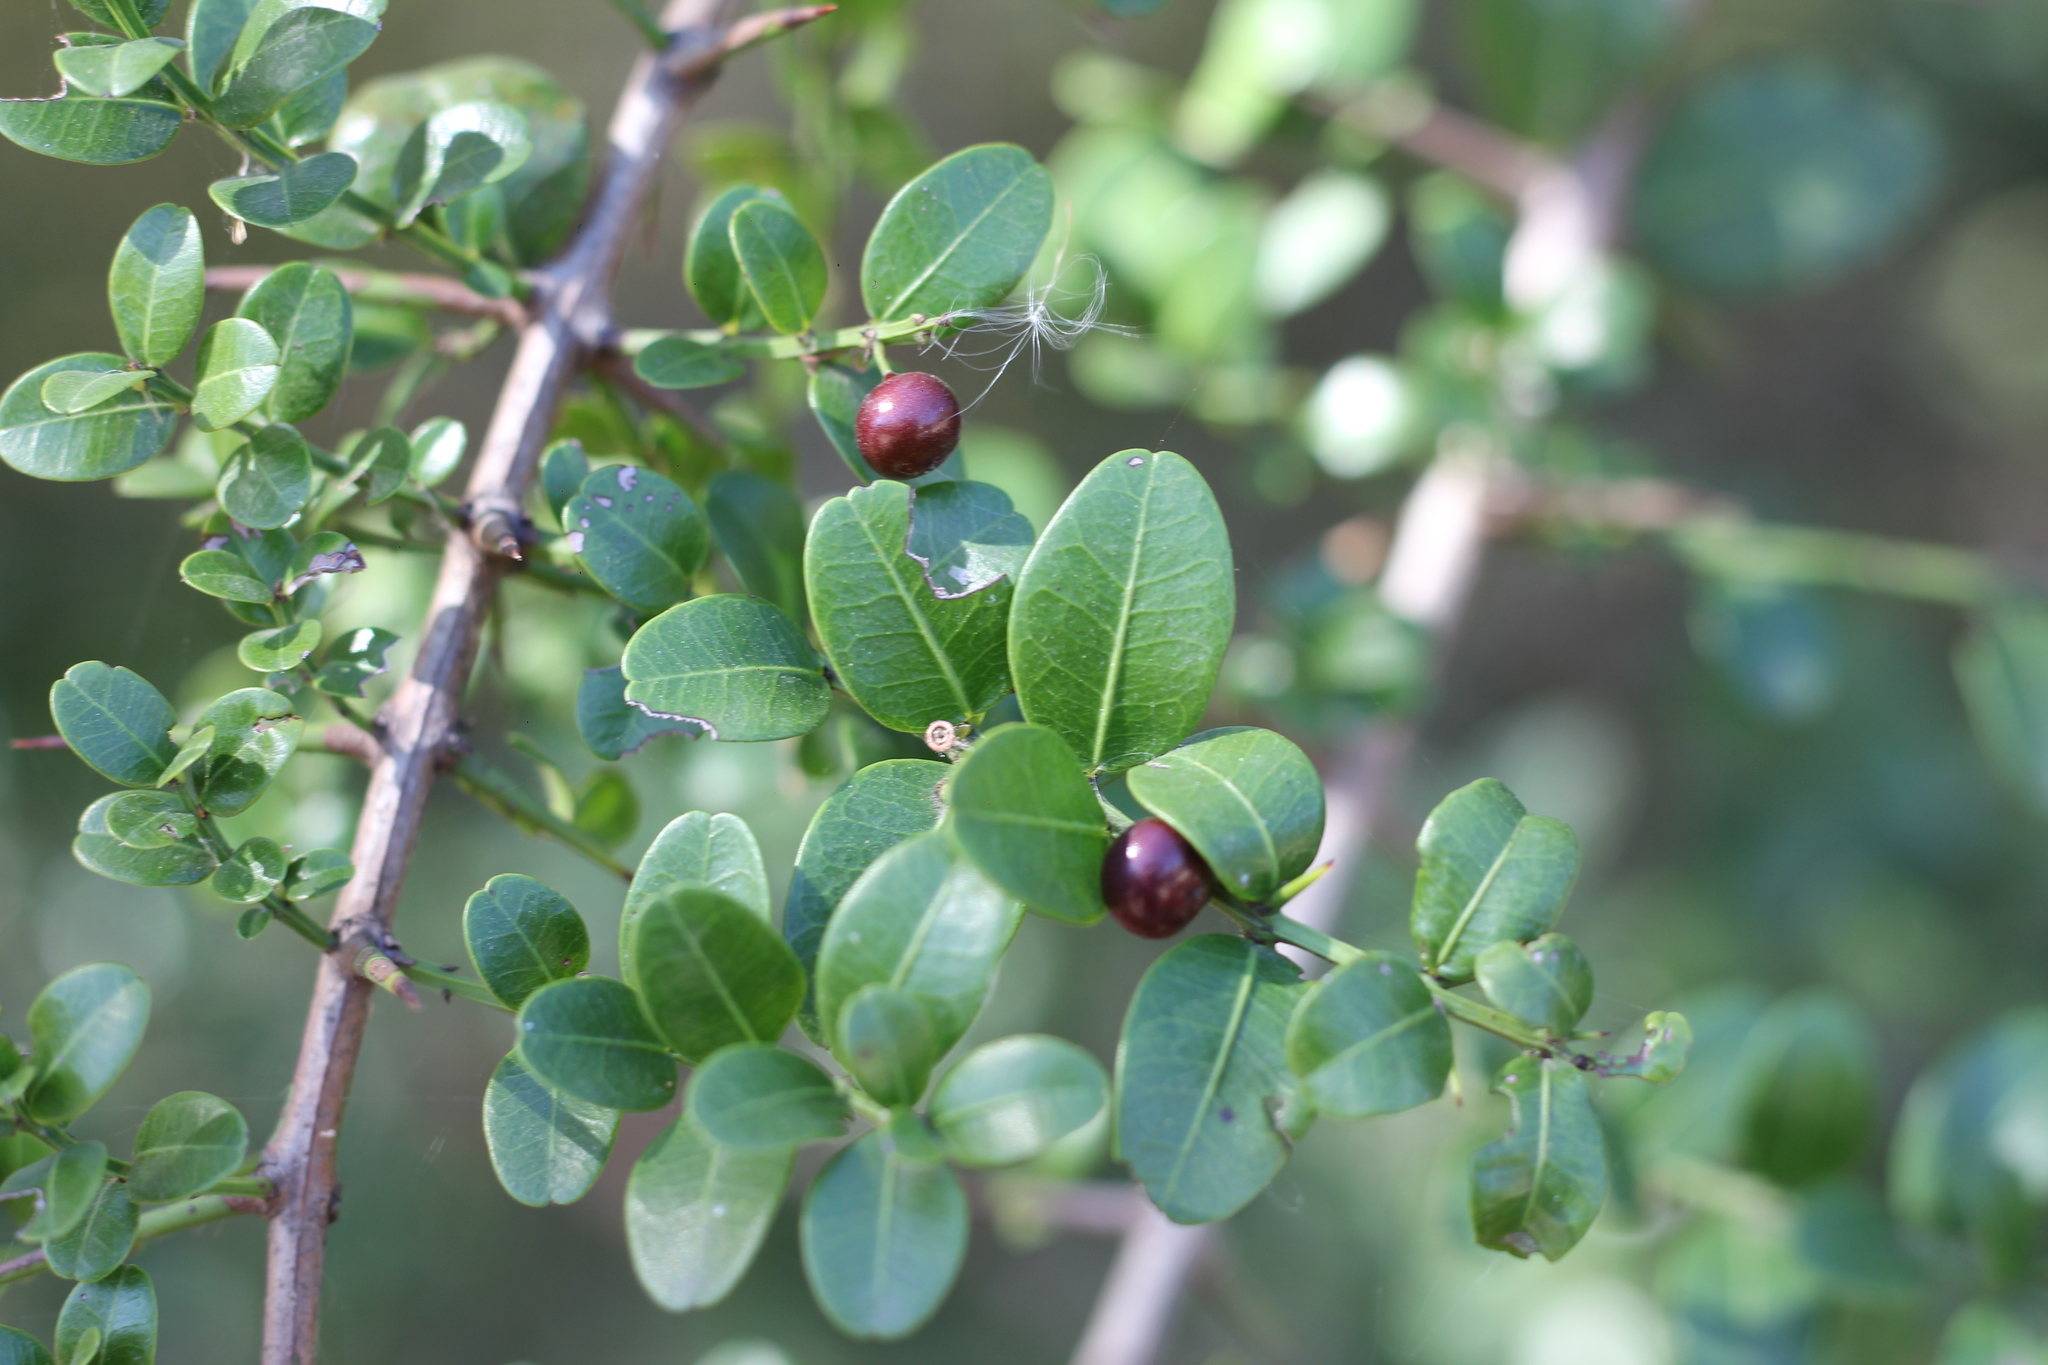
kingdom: Plantae
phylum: Tracheophyta
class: Magnoliopsida
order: Rosales
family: Rhamnaceae
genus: Scutia
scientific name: Scutia buxifolia
